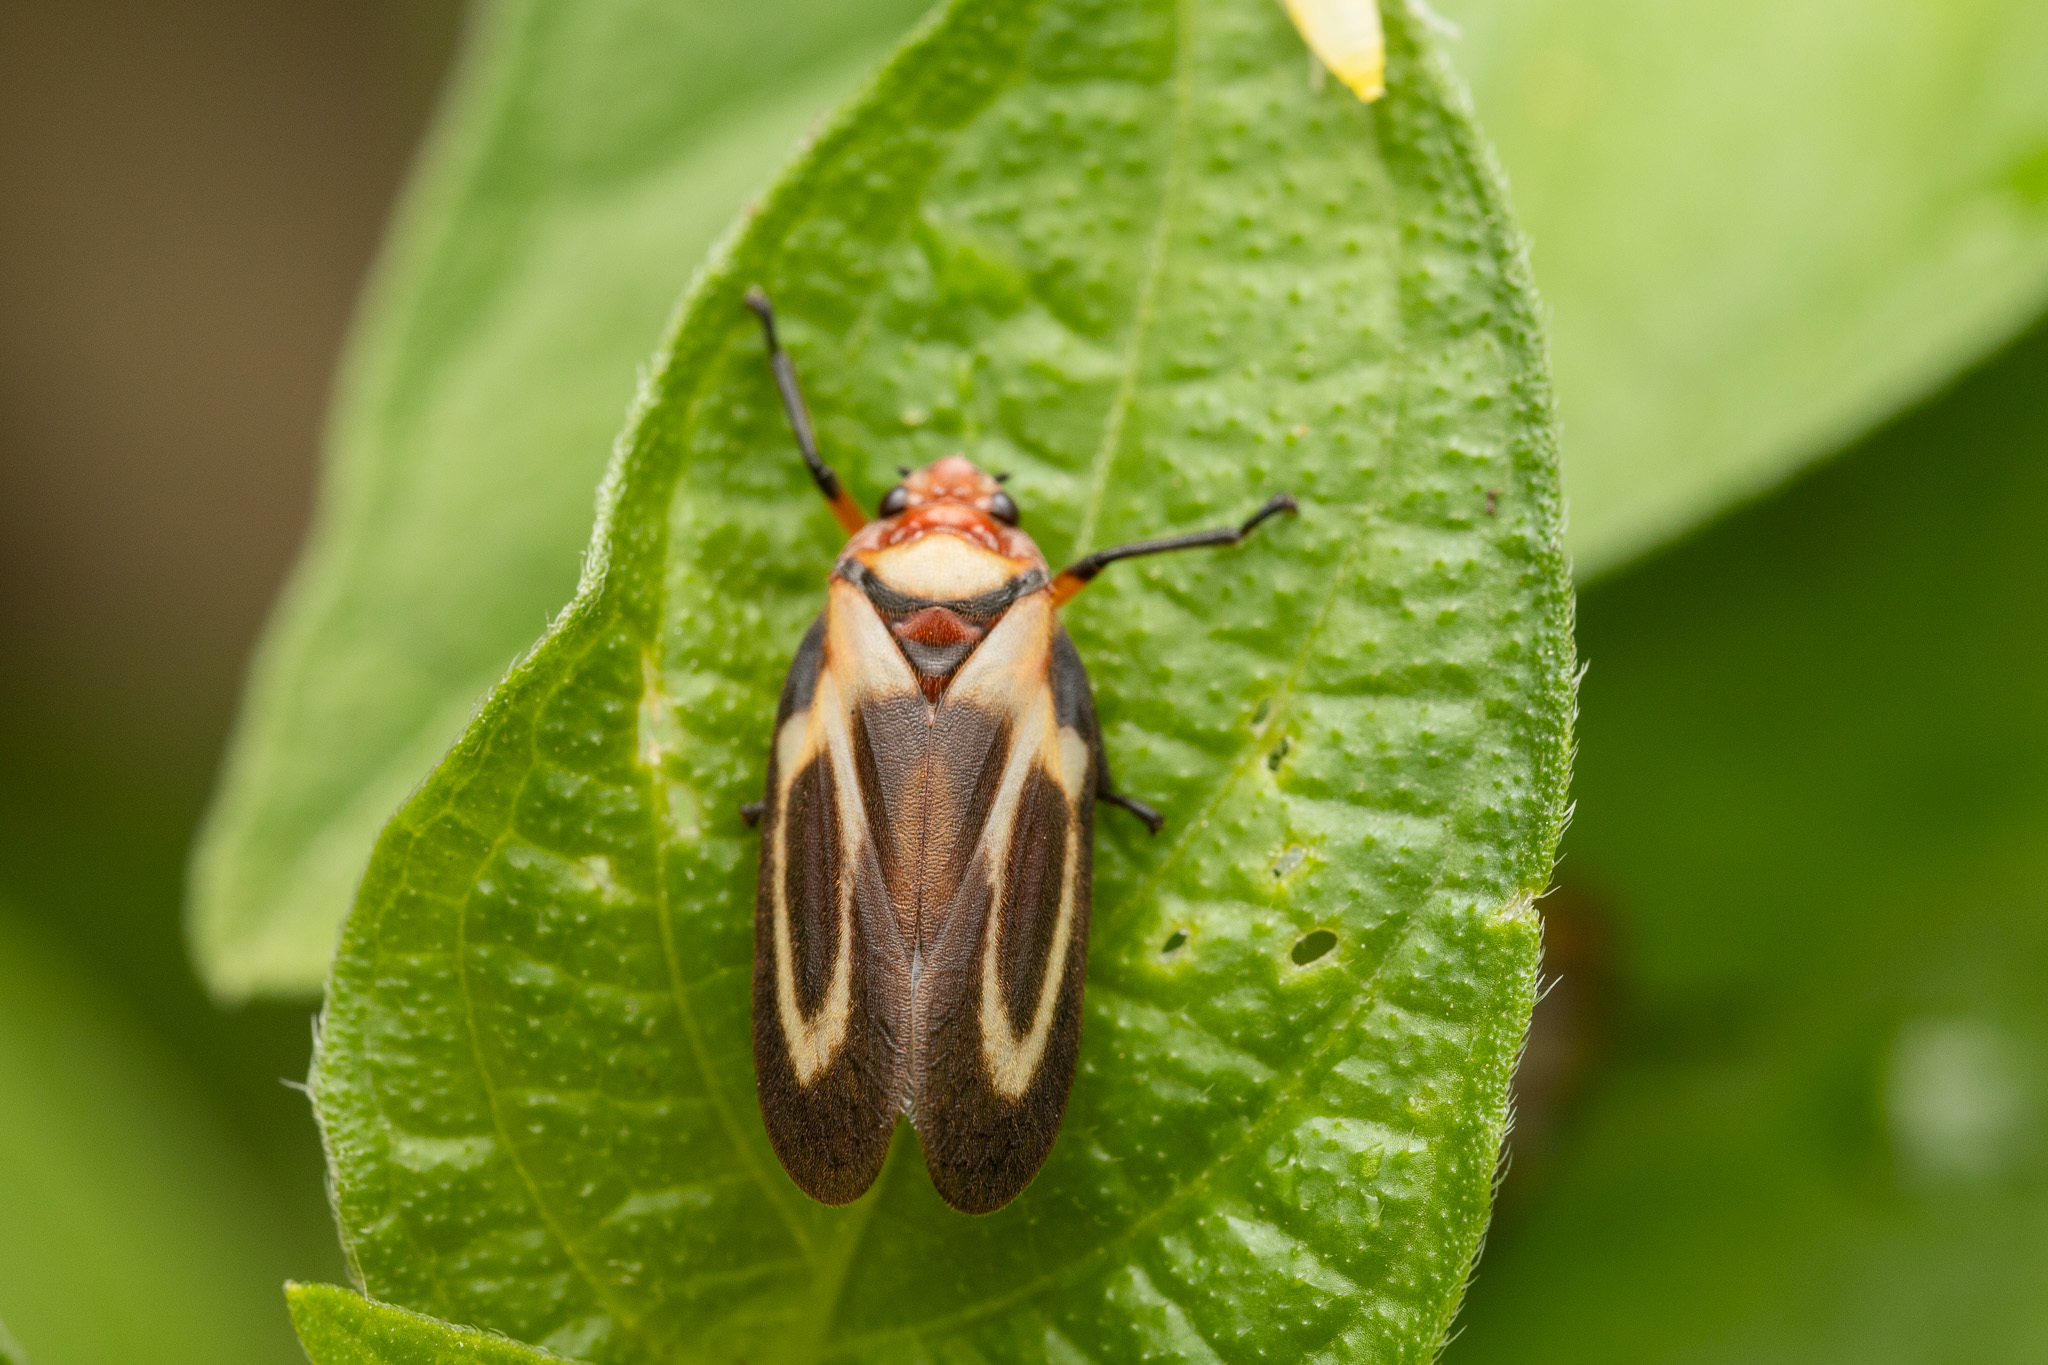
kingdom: Animalia
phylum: Arthropoda
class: Insecta
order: Hemiptera
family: Cercopidae
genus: Ocoaxo
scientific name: Ocoaxo
